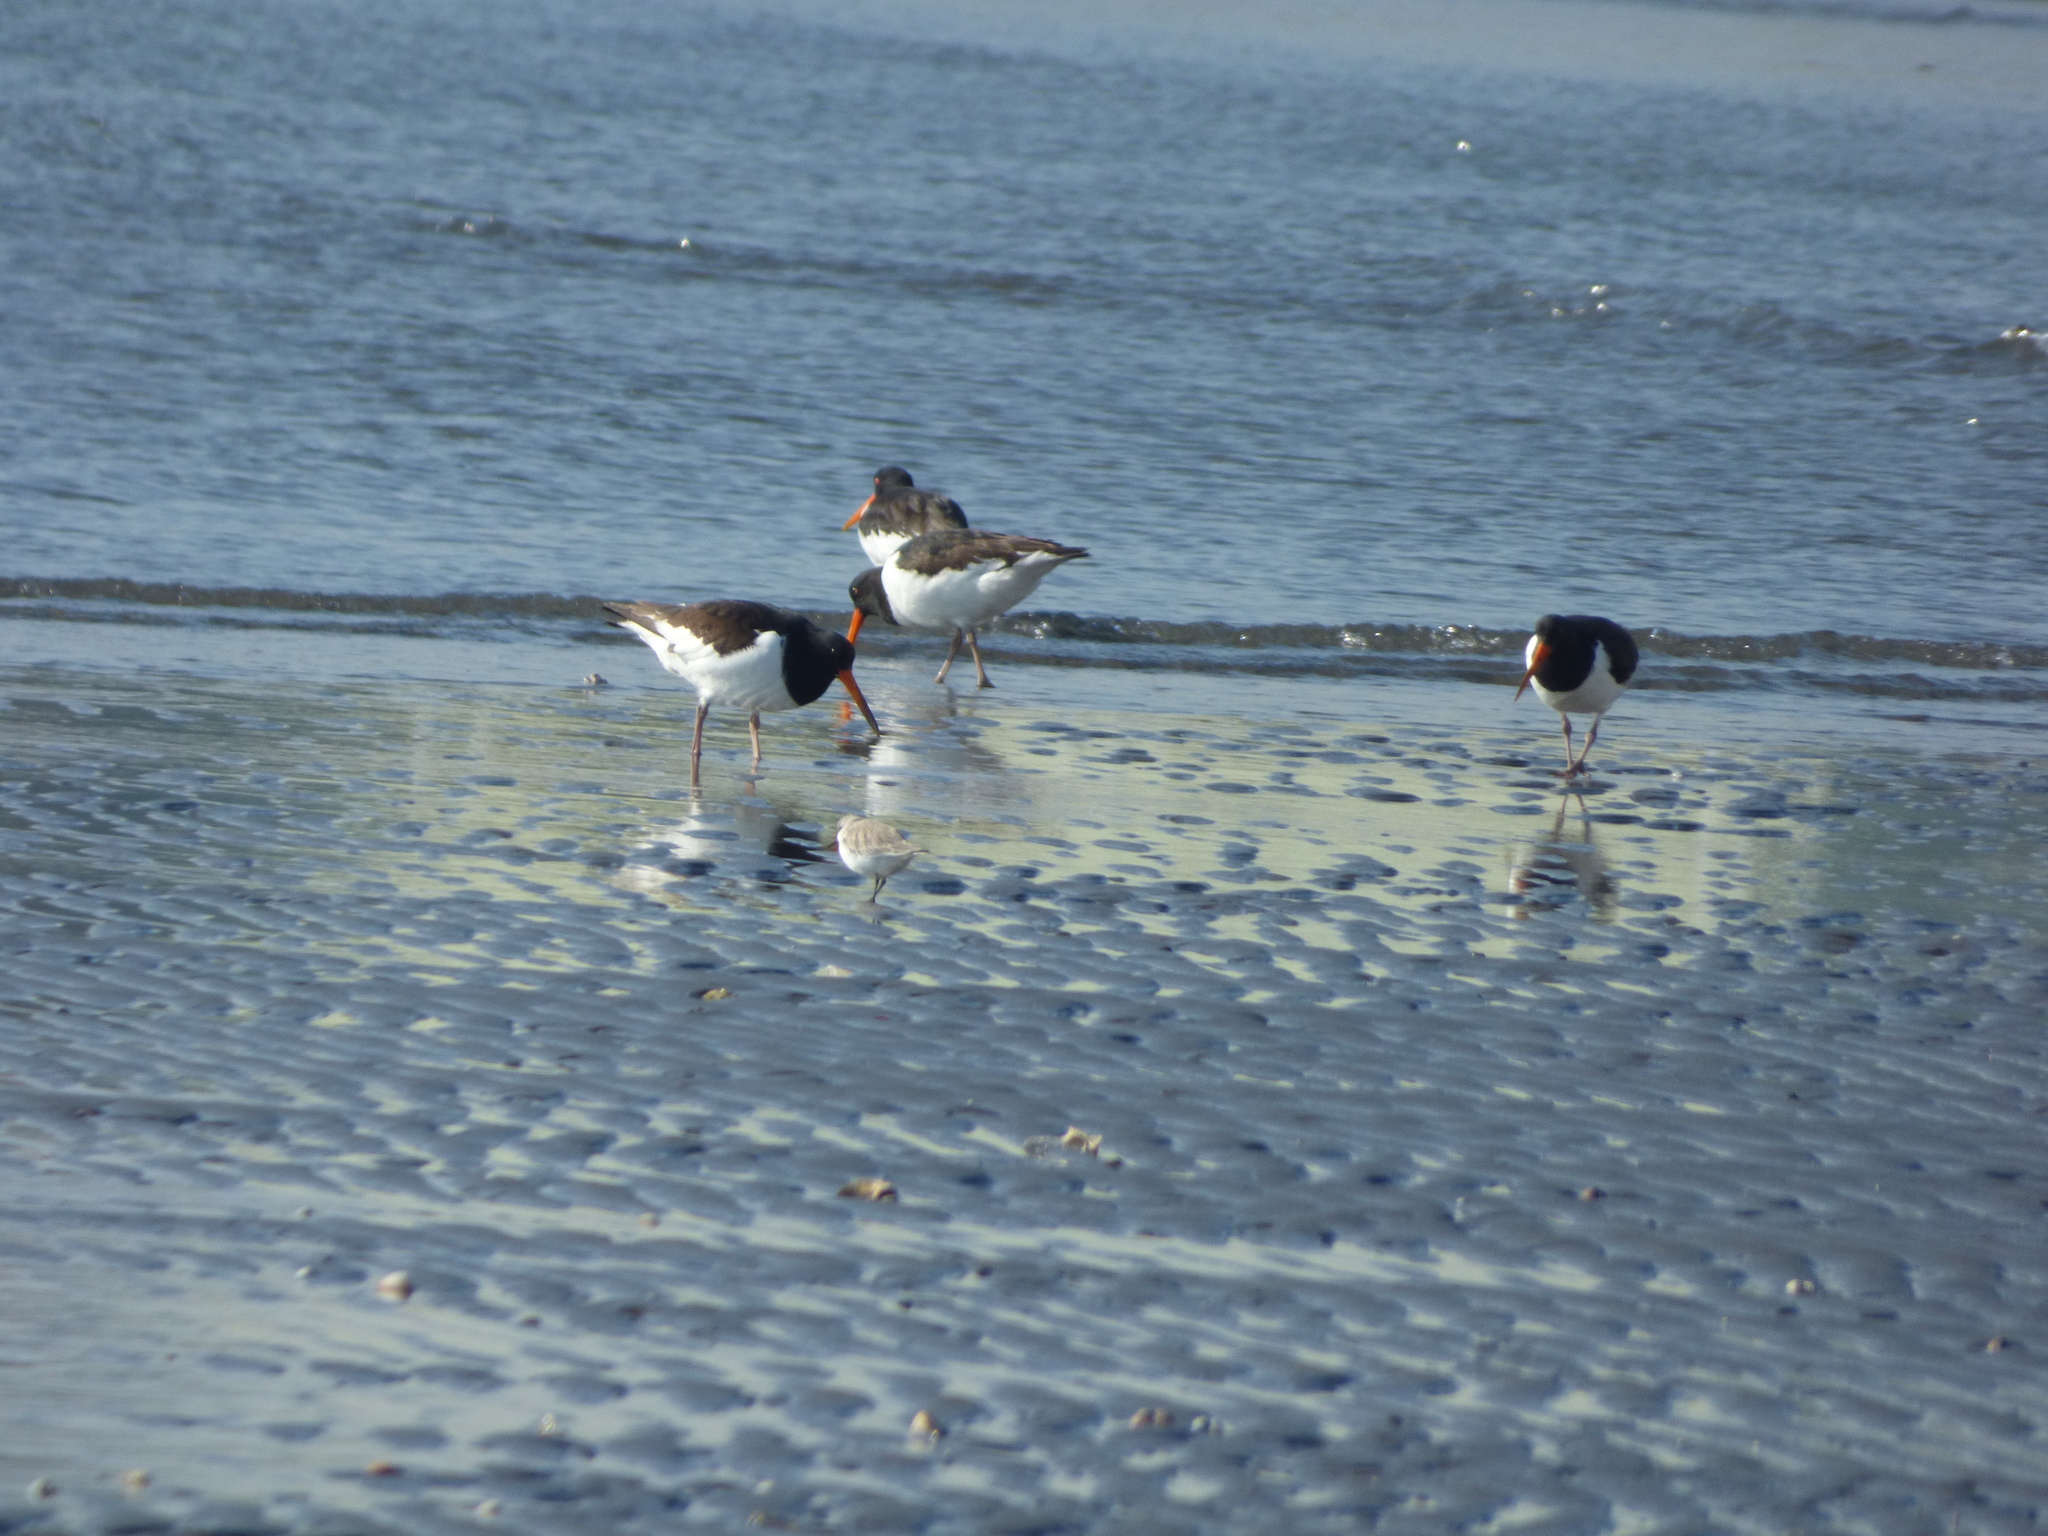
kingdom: Animalia
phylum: Chordata
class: Aves
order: Charadriiformes
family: Haematopodidae
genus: Haematopus
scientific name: Haematopus ostralegus
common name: Eurasian oystercatcher
